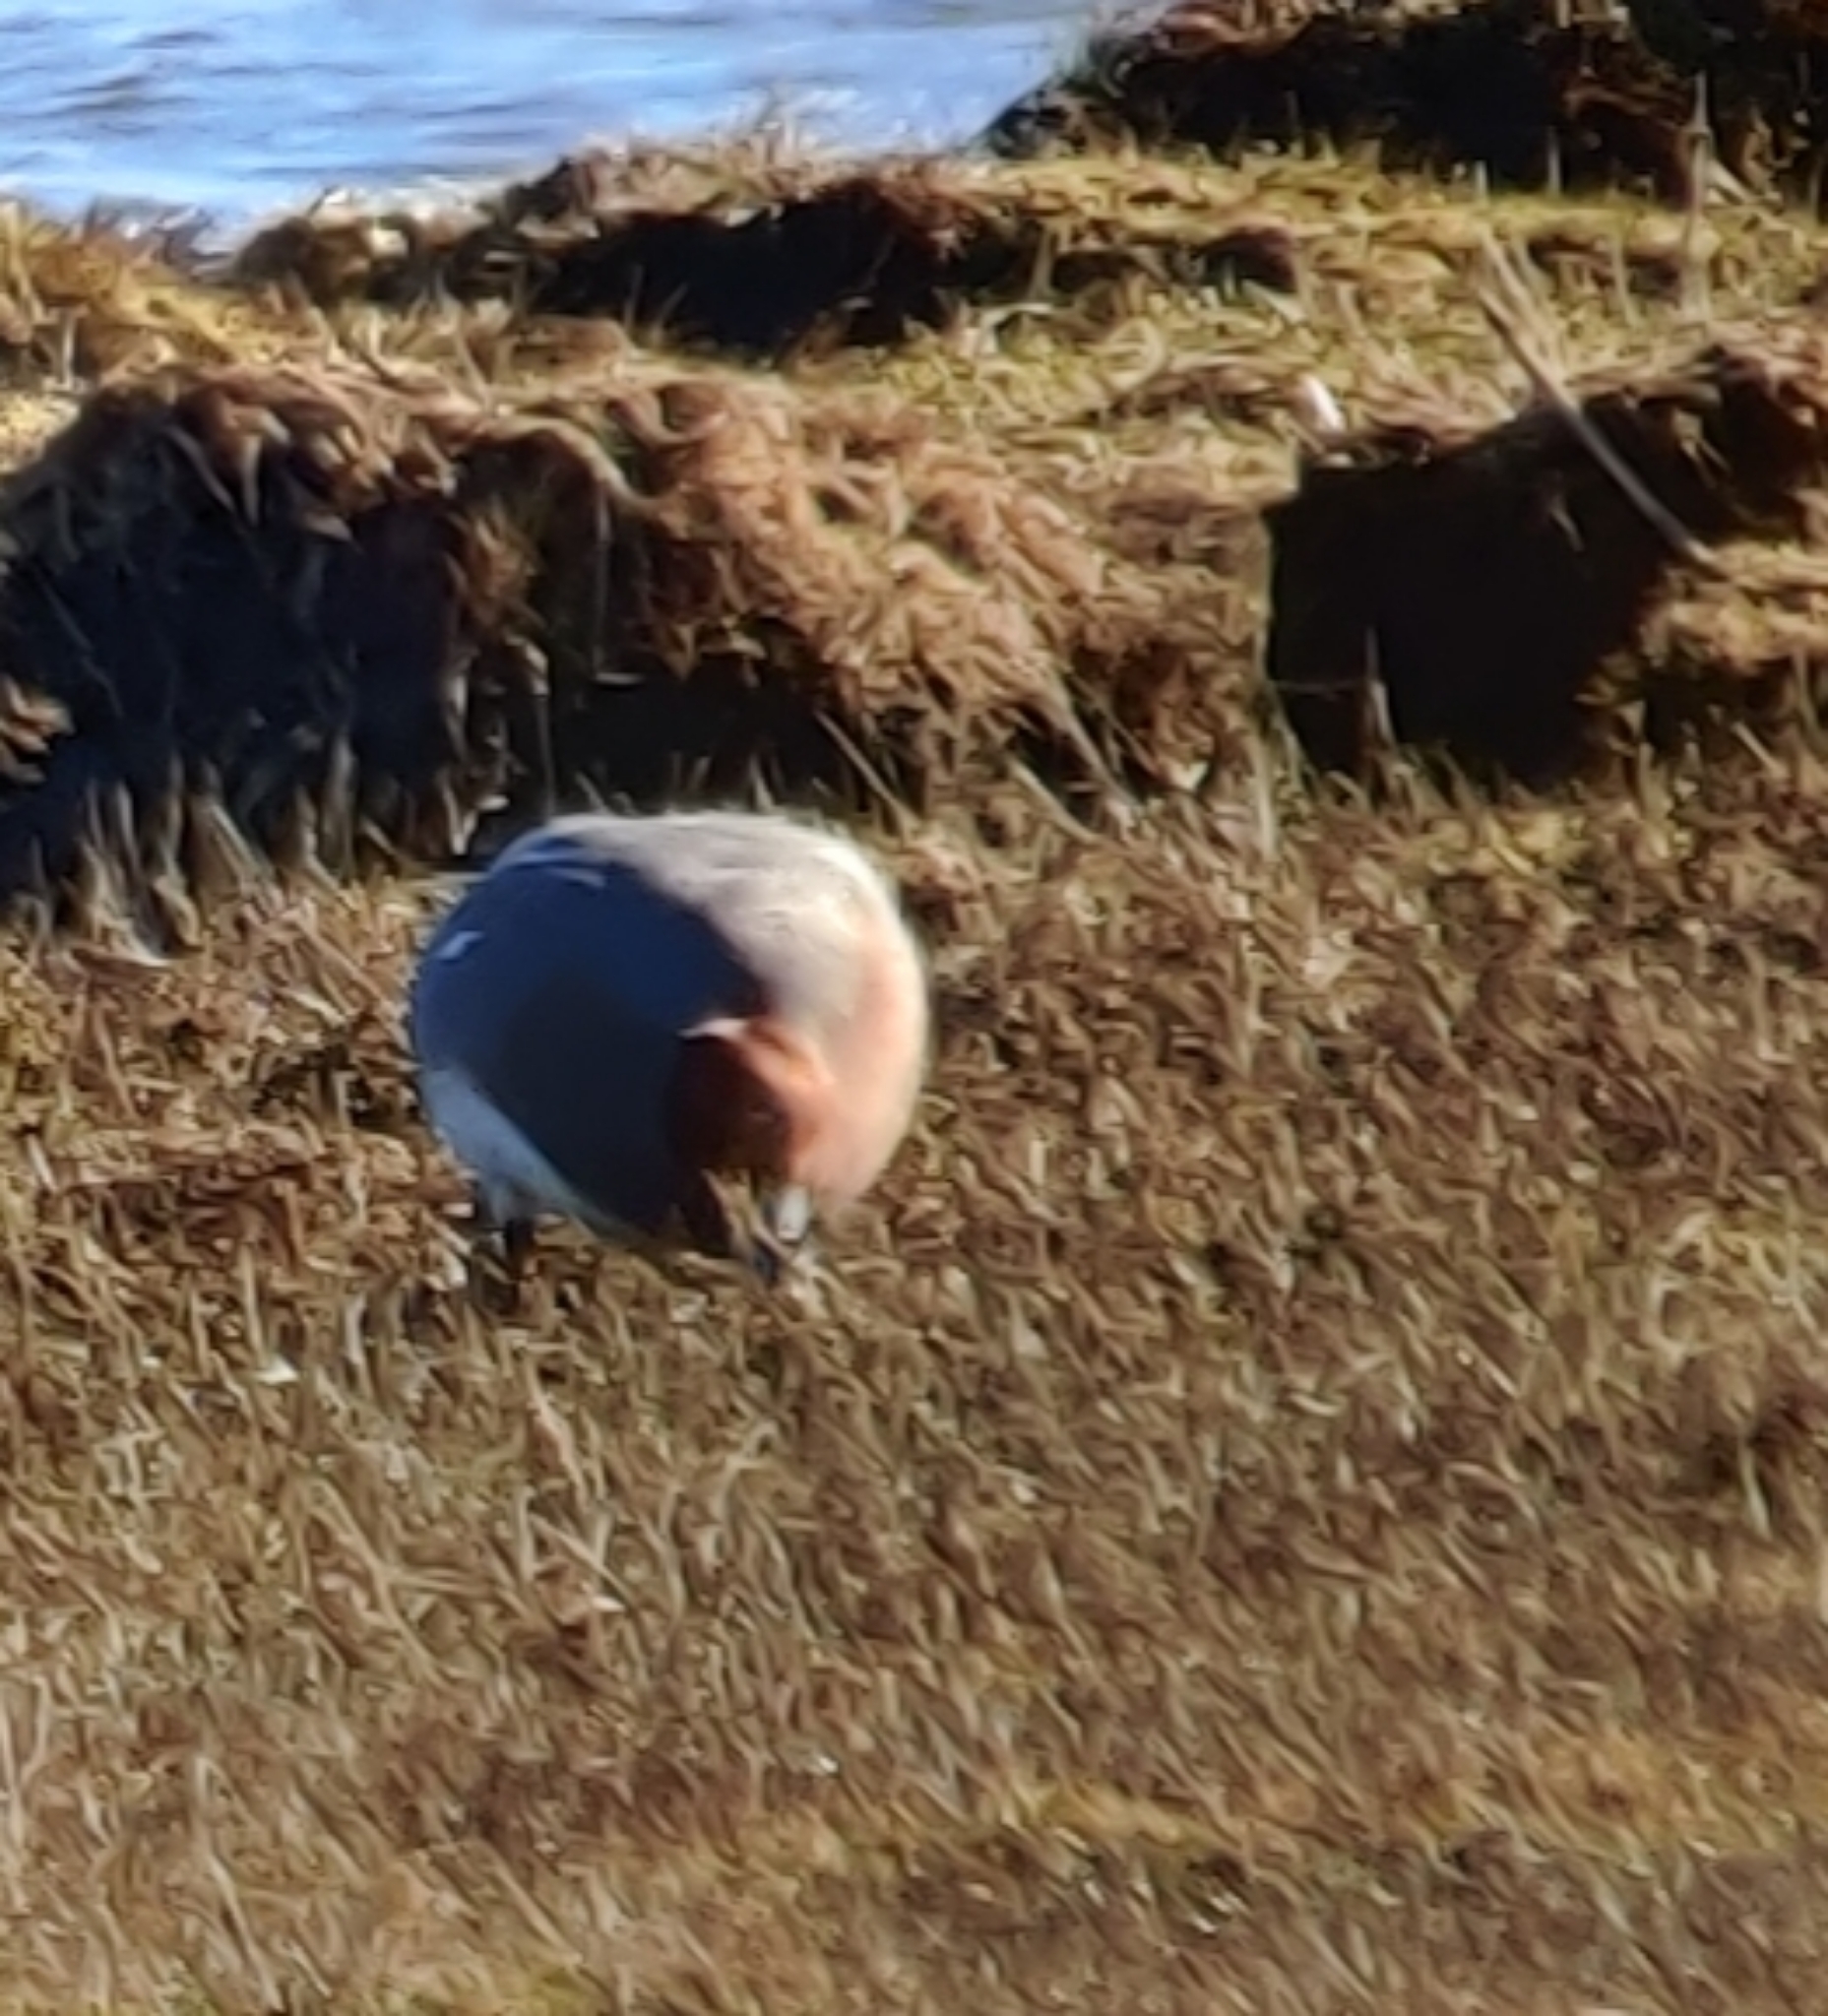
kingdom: Animalia
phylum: Chordata
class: Aves
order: Anseriformes
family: Anatidae
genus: Mareca
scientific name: Mareca penelope
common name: Eurasian wigeon
